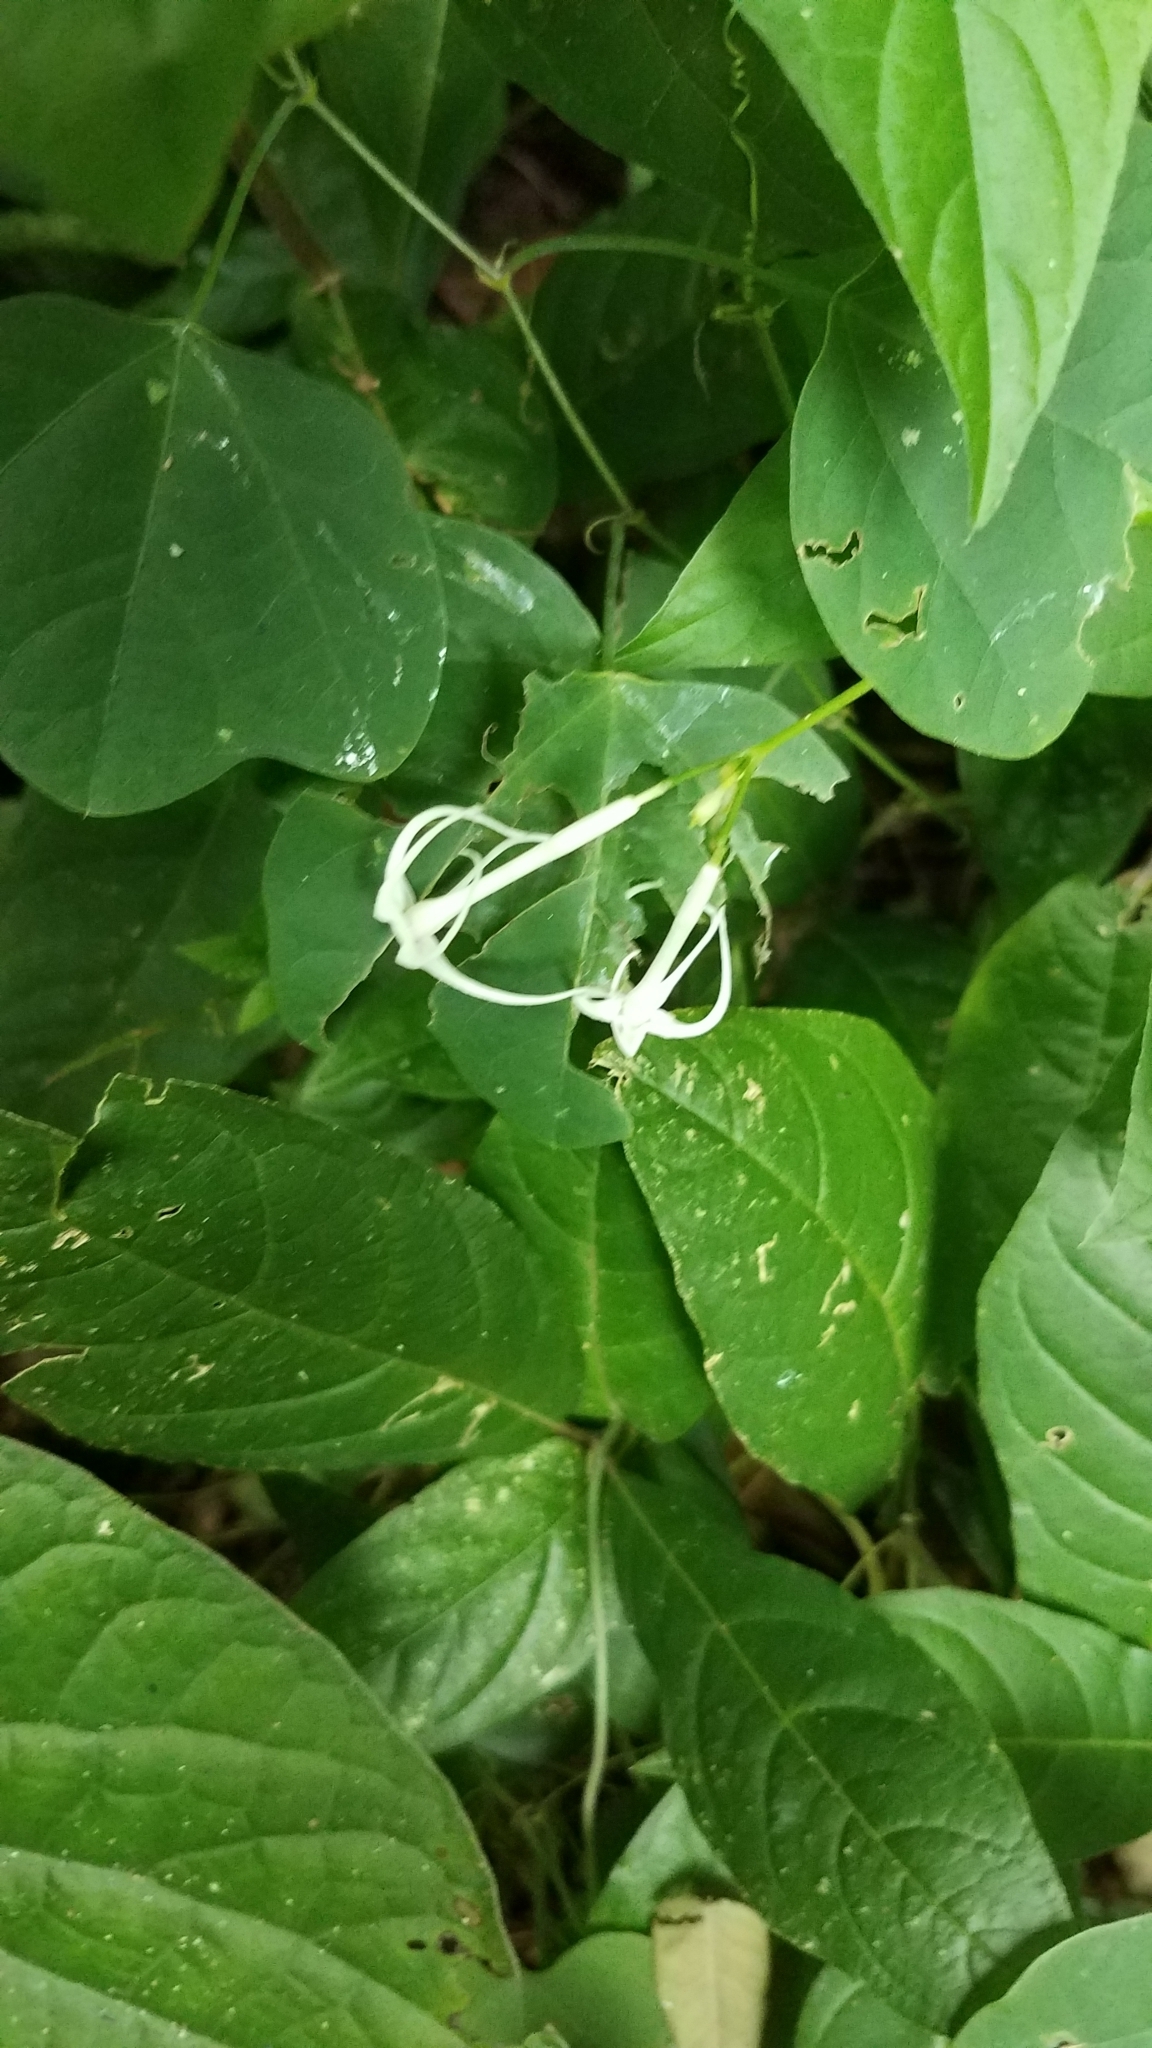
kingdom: Plantae
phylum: Tracheophyta
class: Magnoliopsida
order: Cucurbitales
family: Cucurbitaceae
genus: Cyclanthera
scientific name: Cyclanthera carthagenensis
